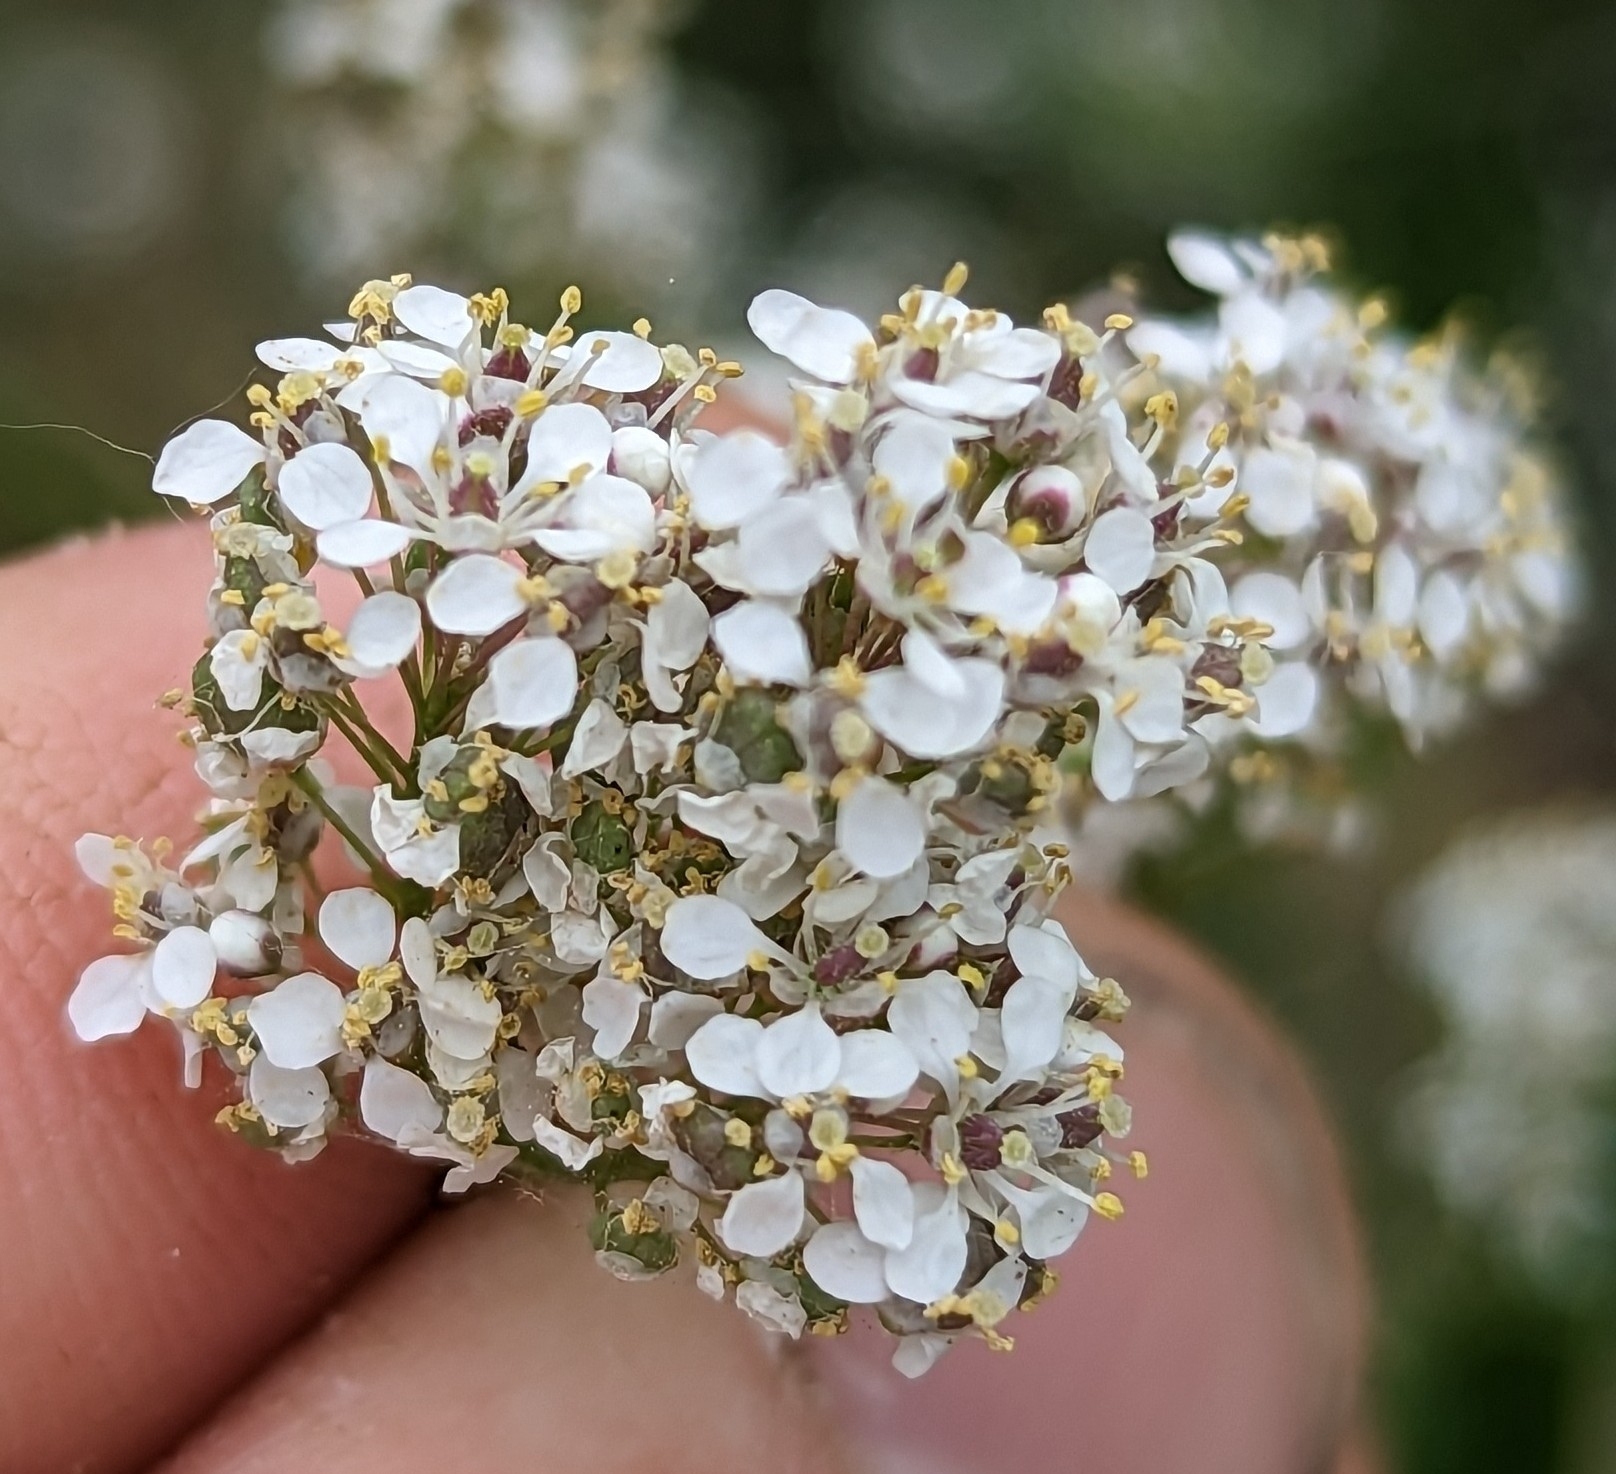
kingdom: Plantae
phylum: Tracheophyta
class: Magnoliopsida
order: Brassicales
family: Brassicaceae
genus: Lepidium
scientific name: Lepidium latifolium
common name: Dittander
